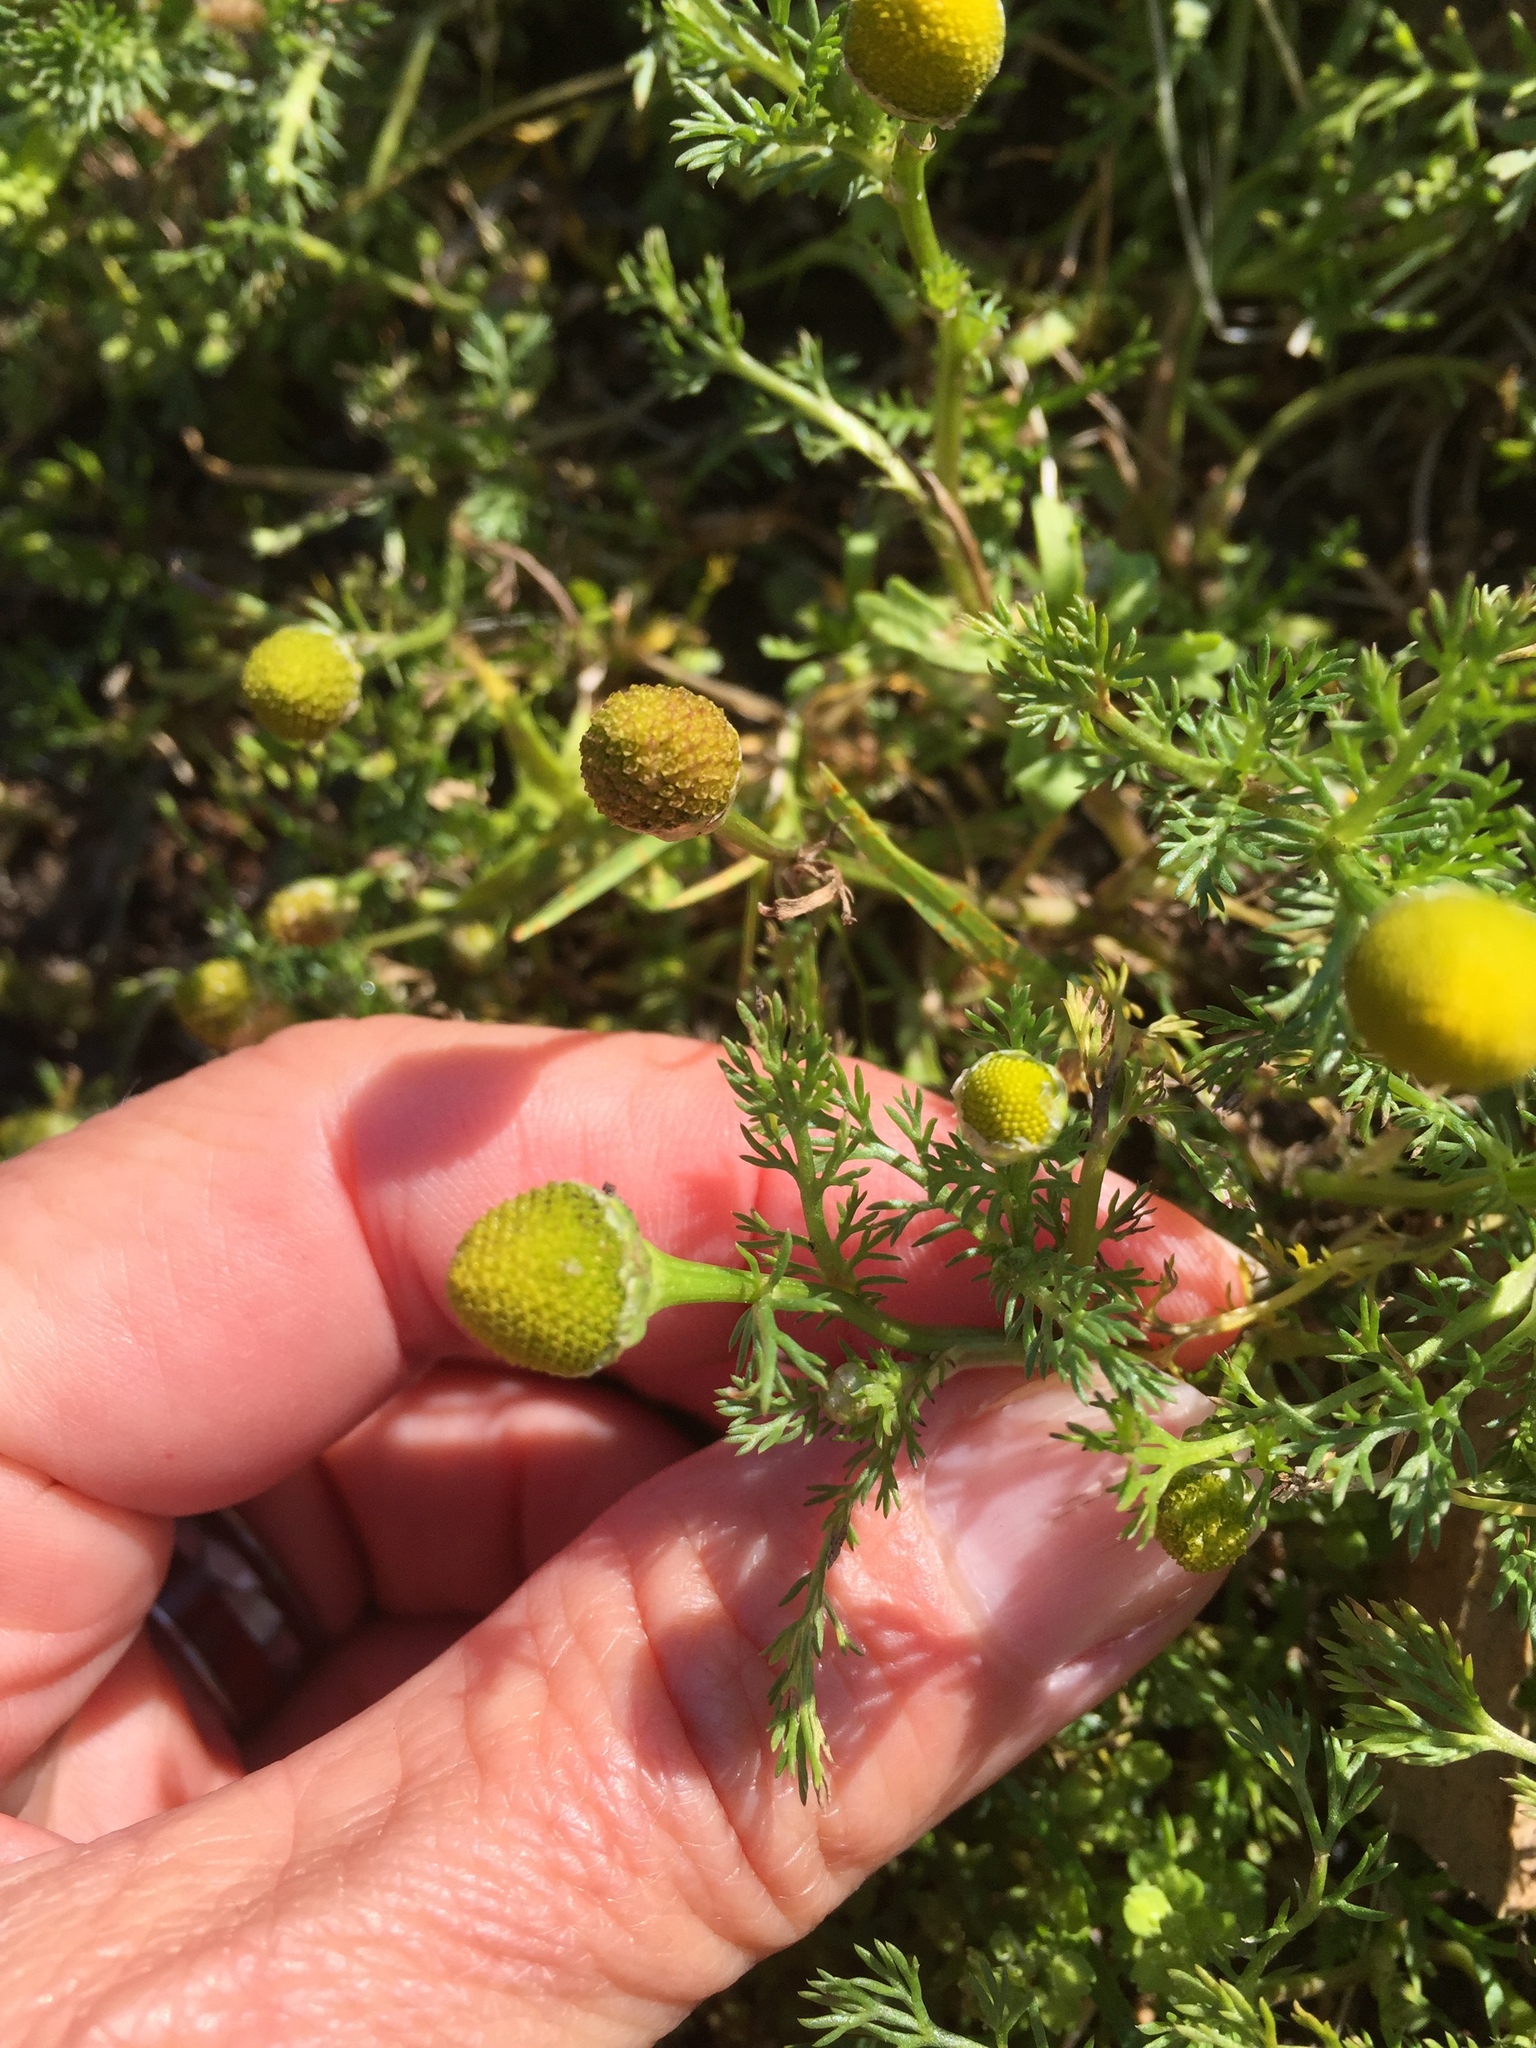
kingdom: Plantae
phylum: Tracheophyta
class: Magnoliopsida
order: Asterales
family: Asteraceae
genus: Matricaria
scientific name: Matricaria discoidea
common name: Disc mayweed
